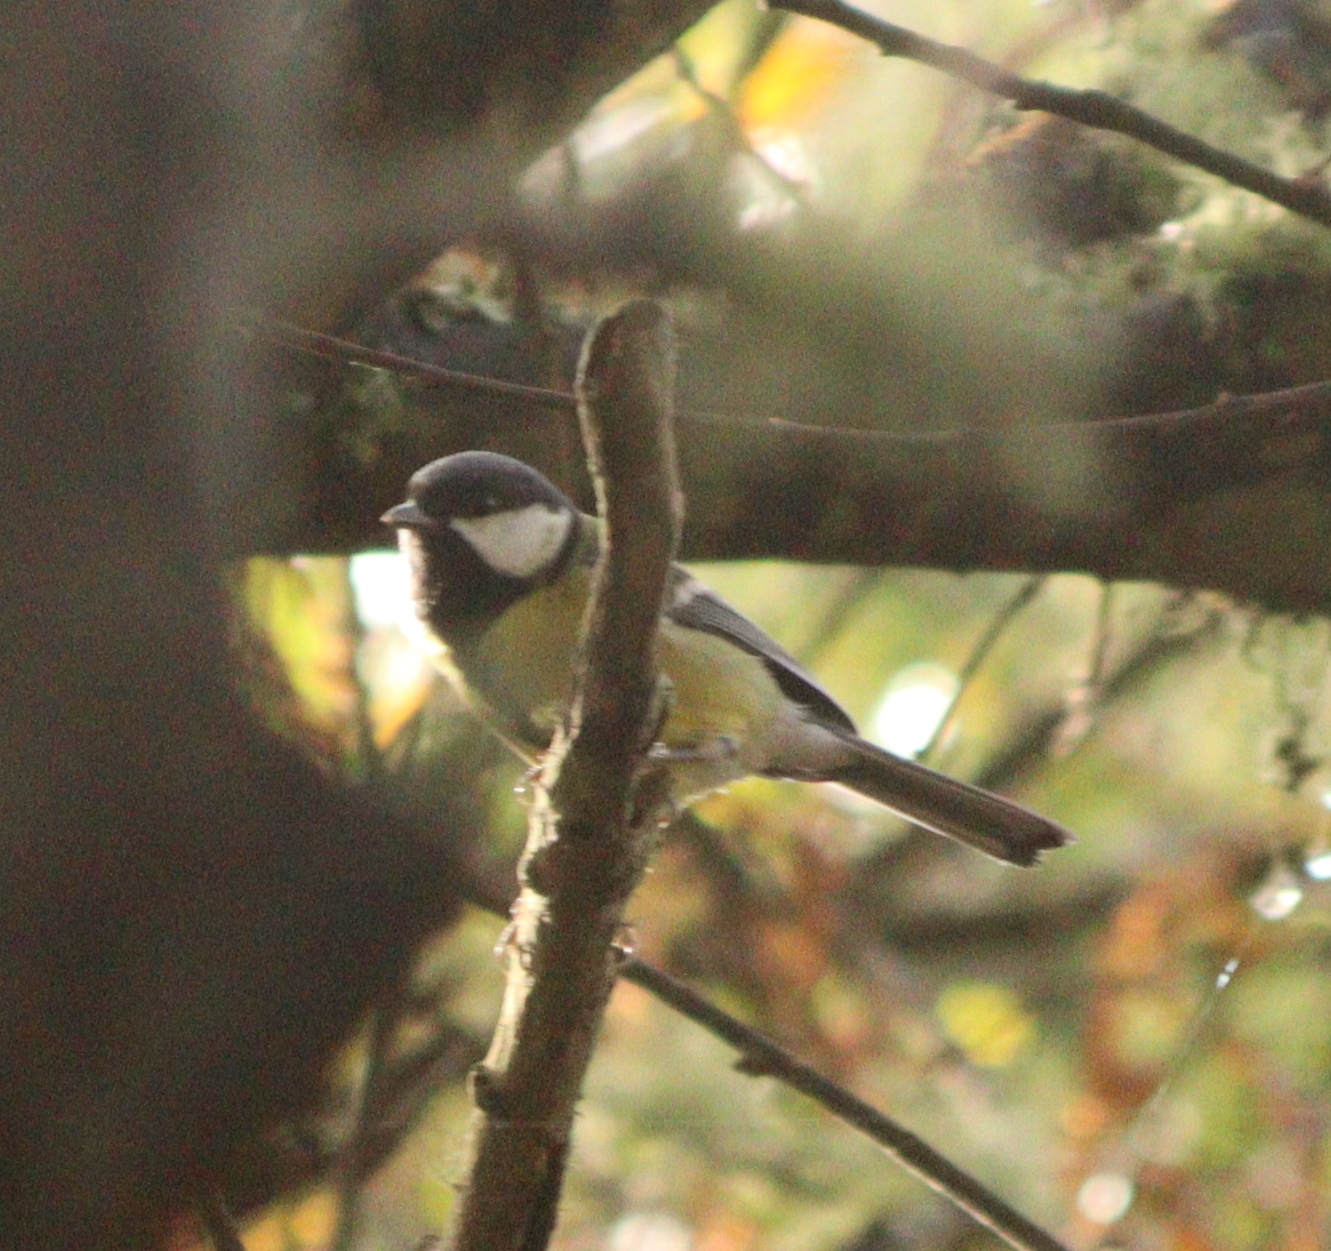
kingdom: Animalia
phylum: Chordata
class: Aves
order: Passeriformes
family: Paridae
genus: Parus
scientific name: Parus major
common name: Great tit
